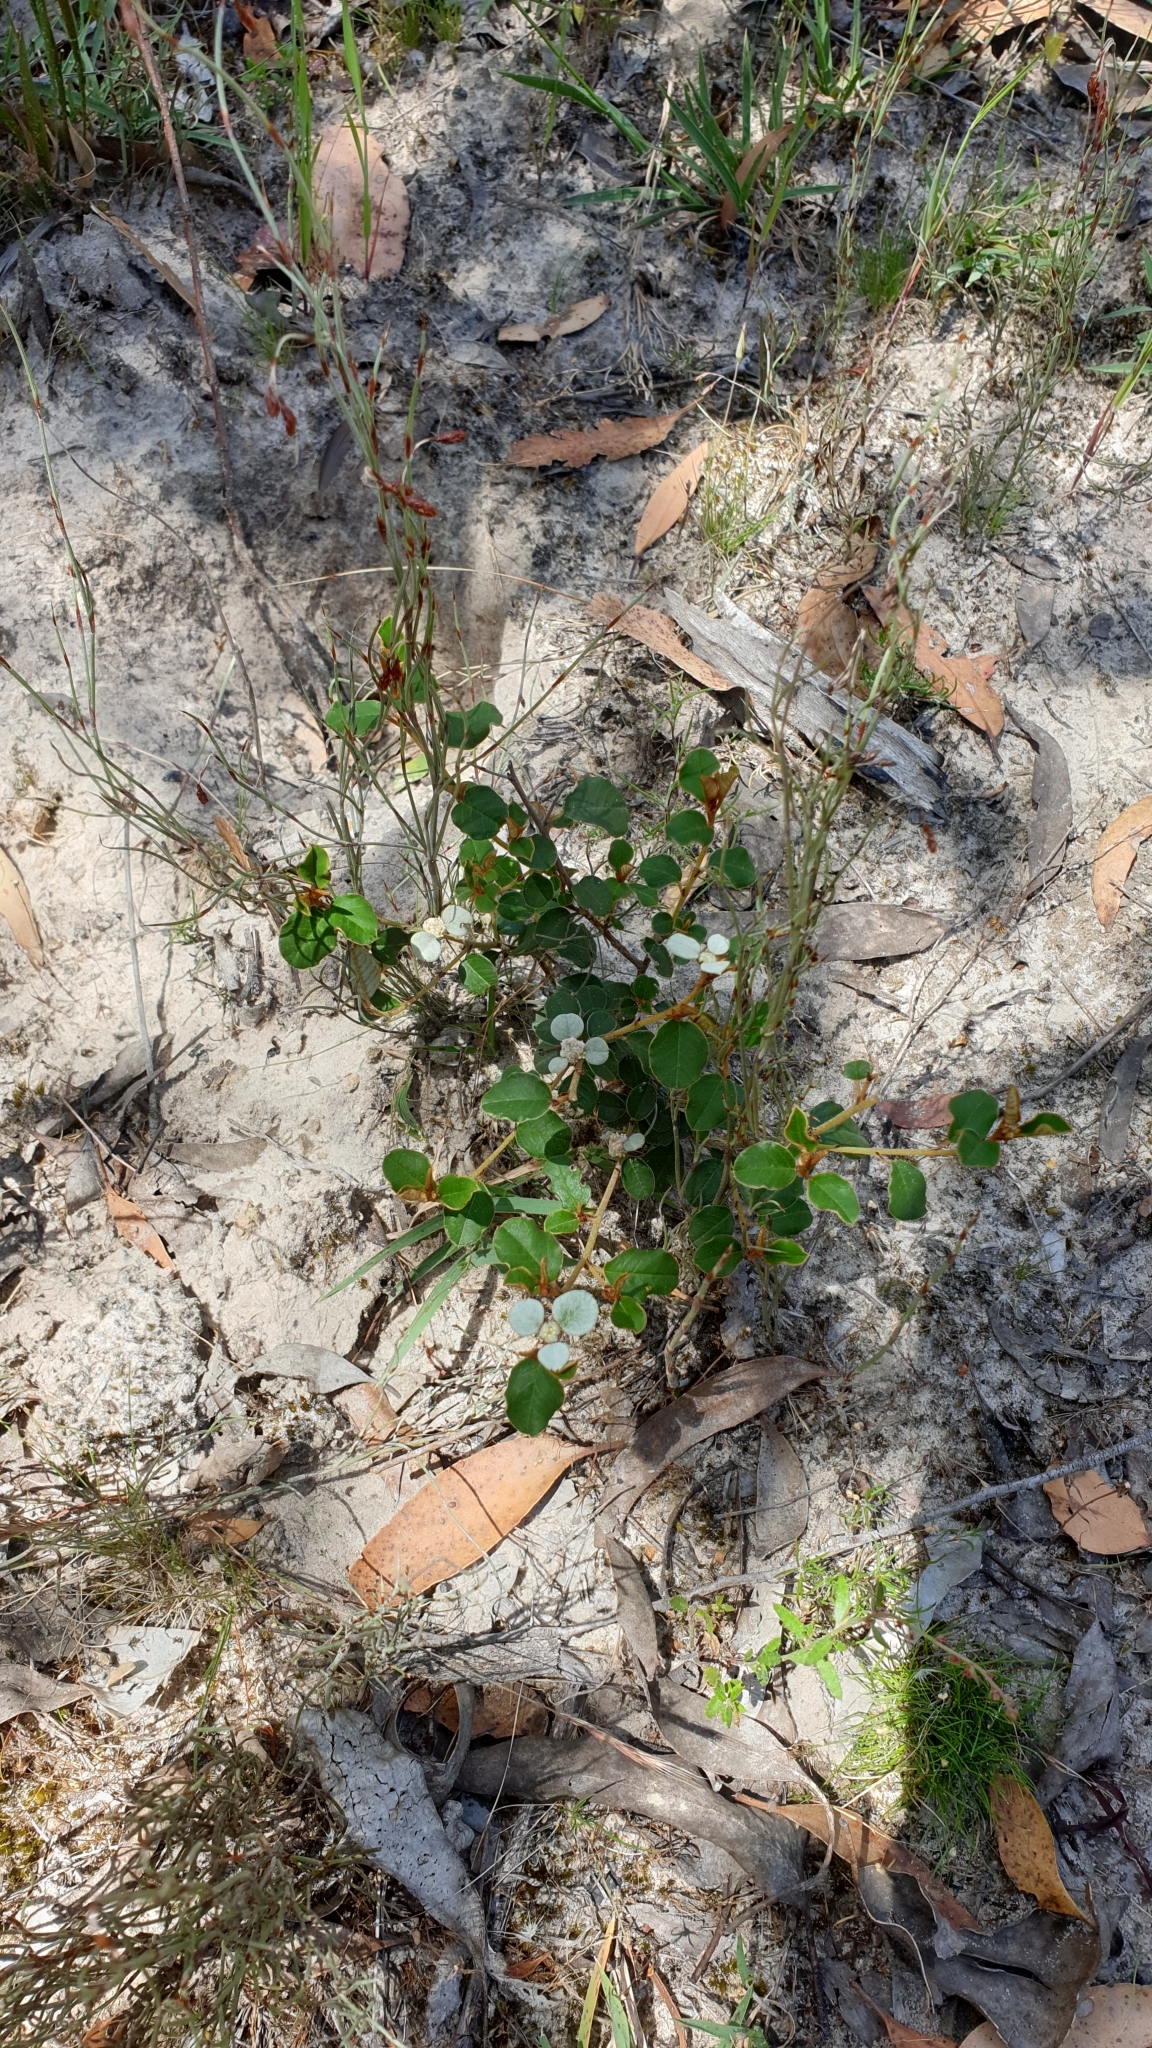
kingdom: Plantae
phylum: Tracheophyta
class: Magnoliopsida
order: Rosales
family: Rhamnaceae
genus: Spyridium
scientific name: Spyridium thymifolium
